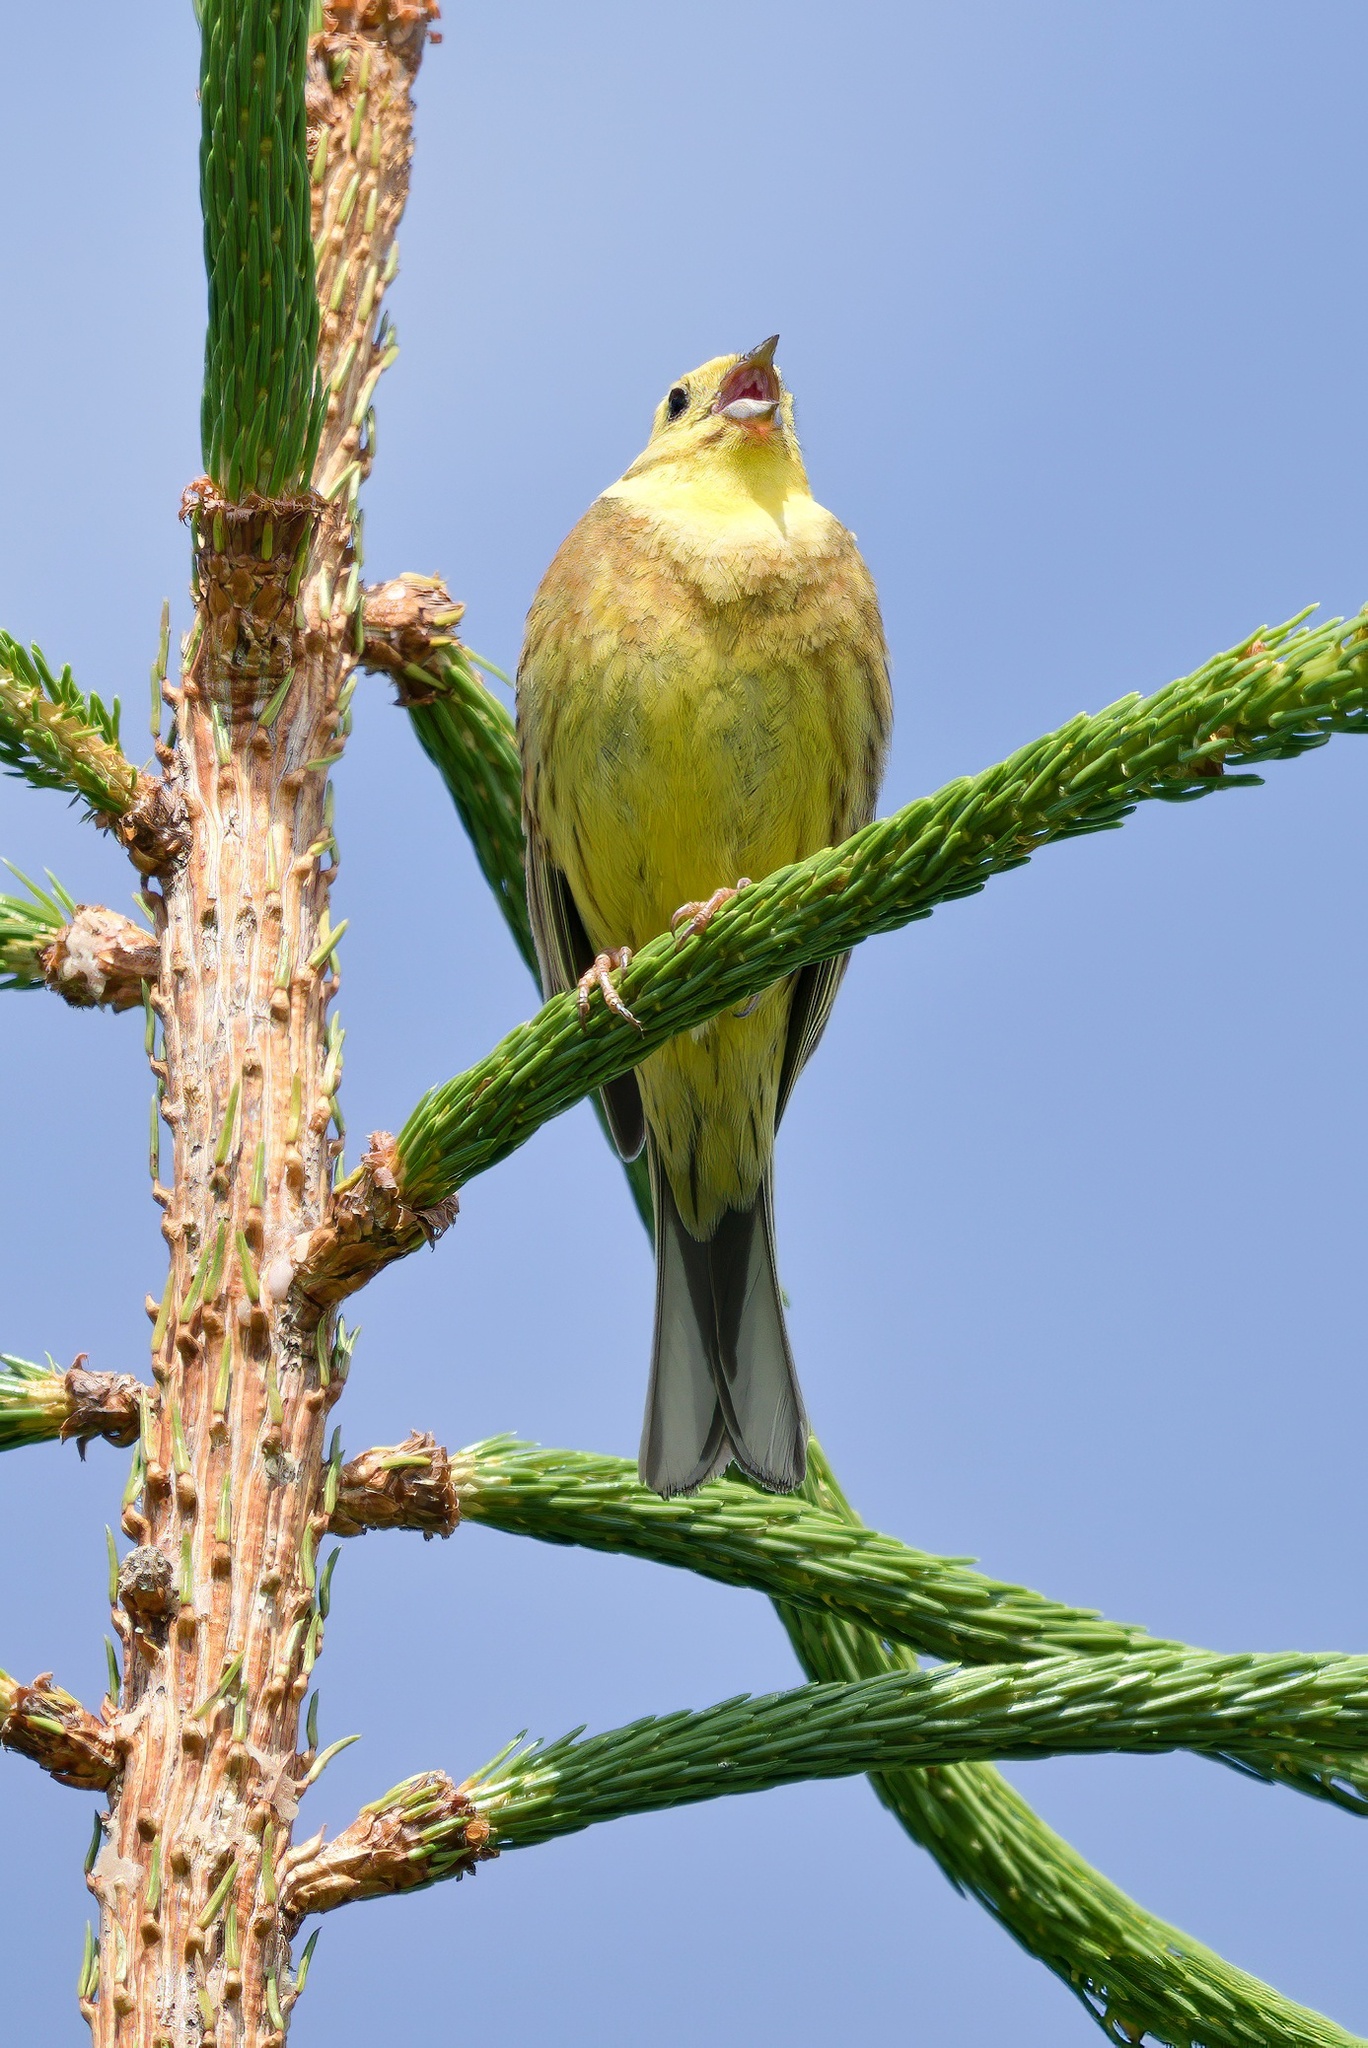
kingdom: Animalia
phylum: Chordata
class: Aves
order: Passeriformes
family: Emberizidae
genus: Emberiza
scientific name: Emberiza citrinella
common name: Yellowhammer
